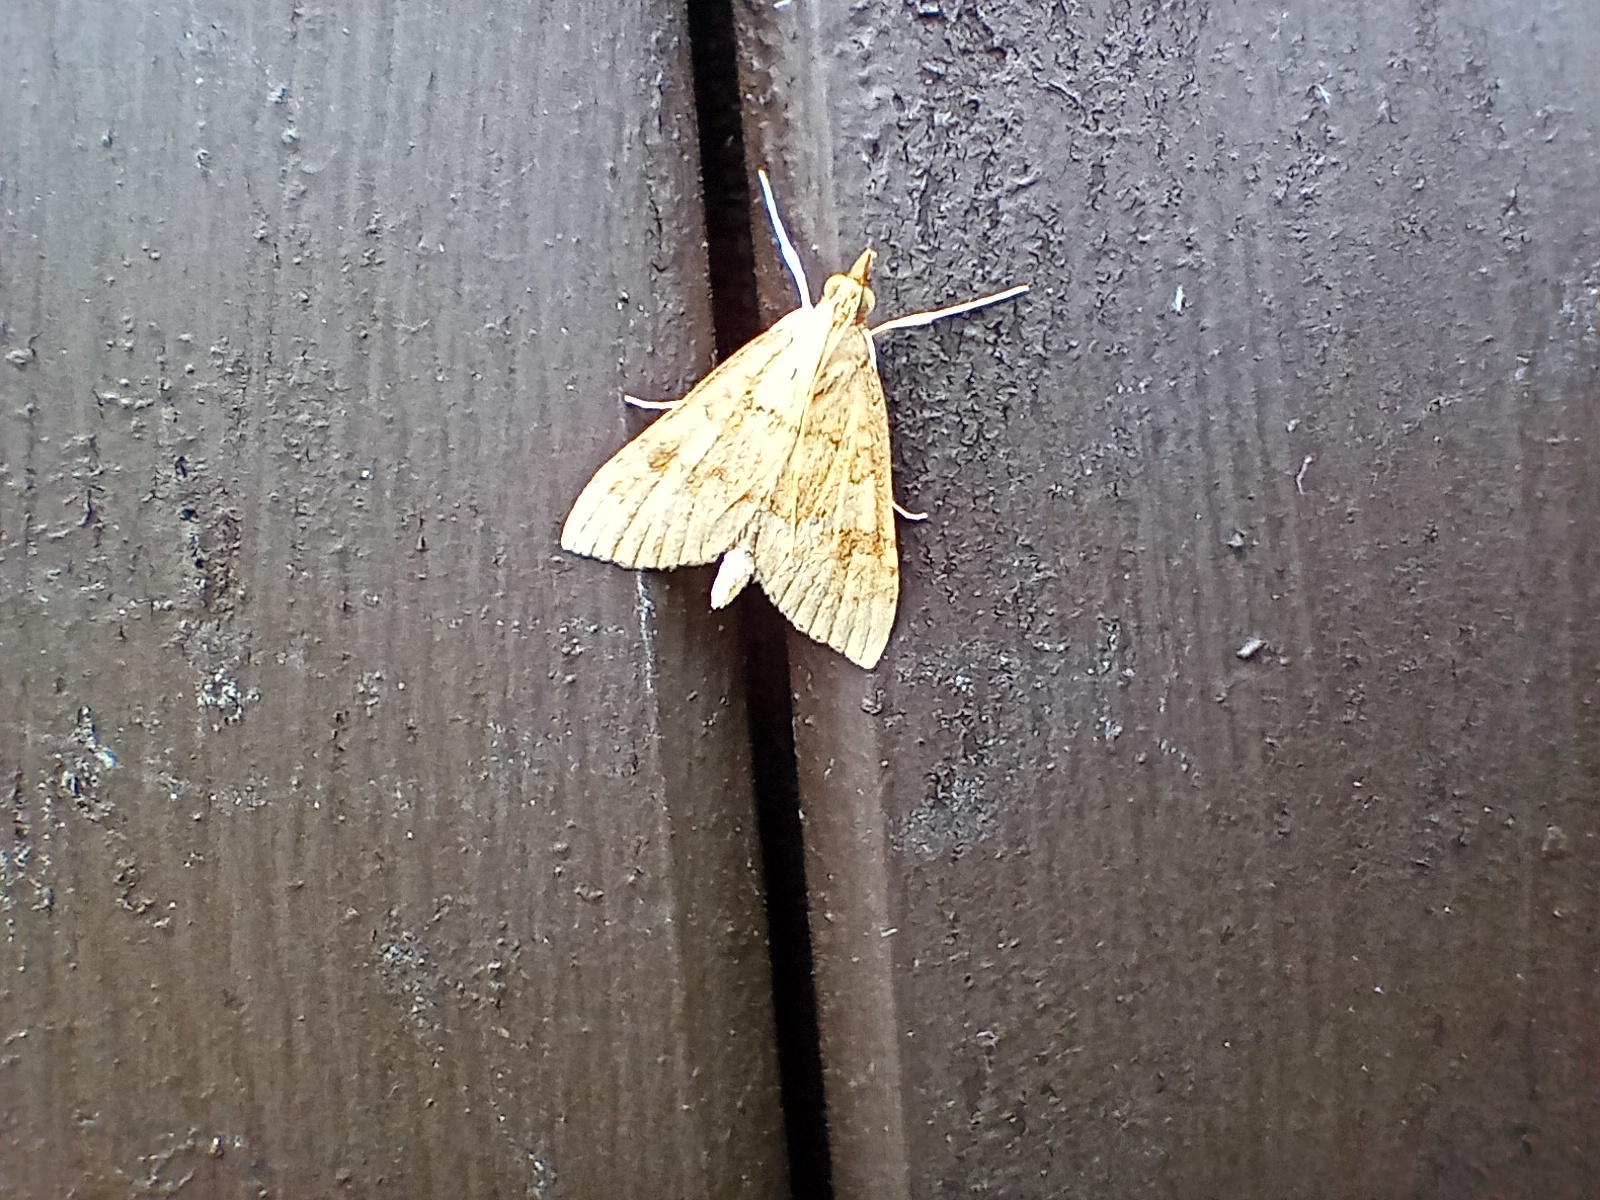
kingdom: Animalia
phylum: Arthropoda
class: Insecta
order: Lepidoptera
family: Crambidae
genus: Udea
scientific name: Udea fulvalis
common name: Fulvous pearl
